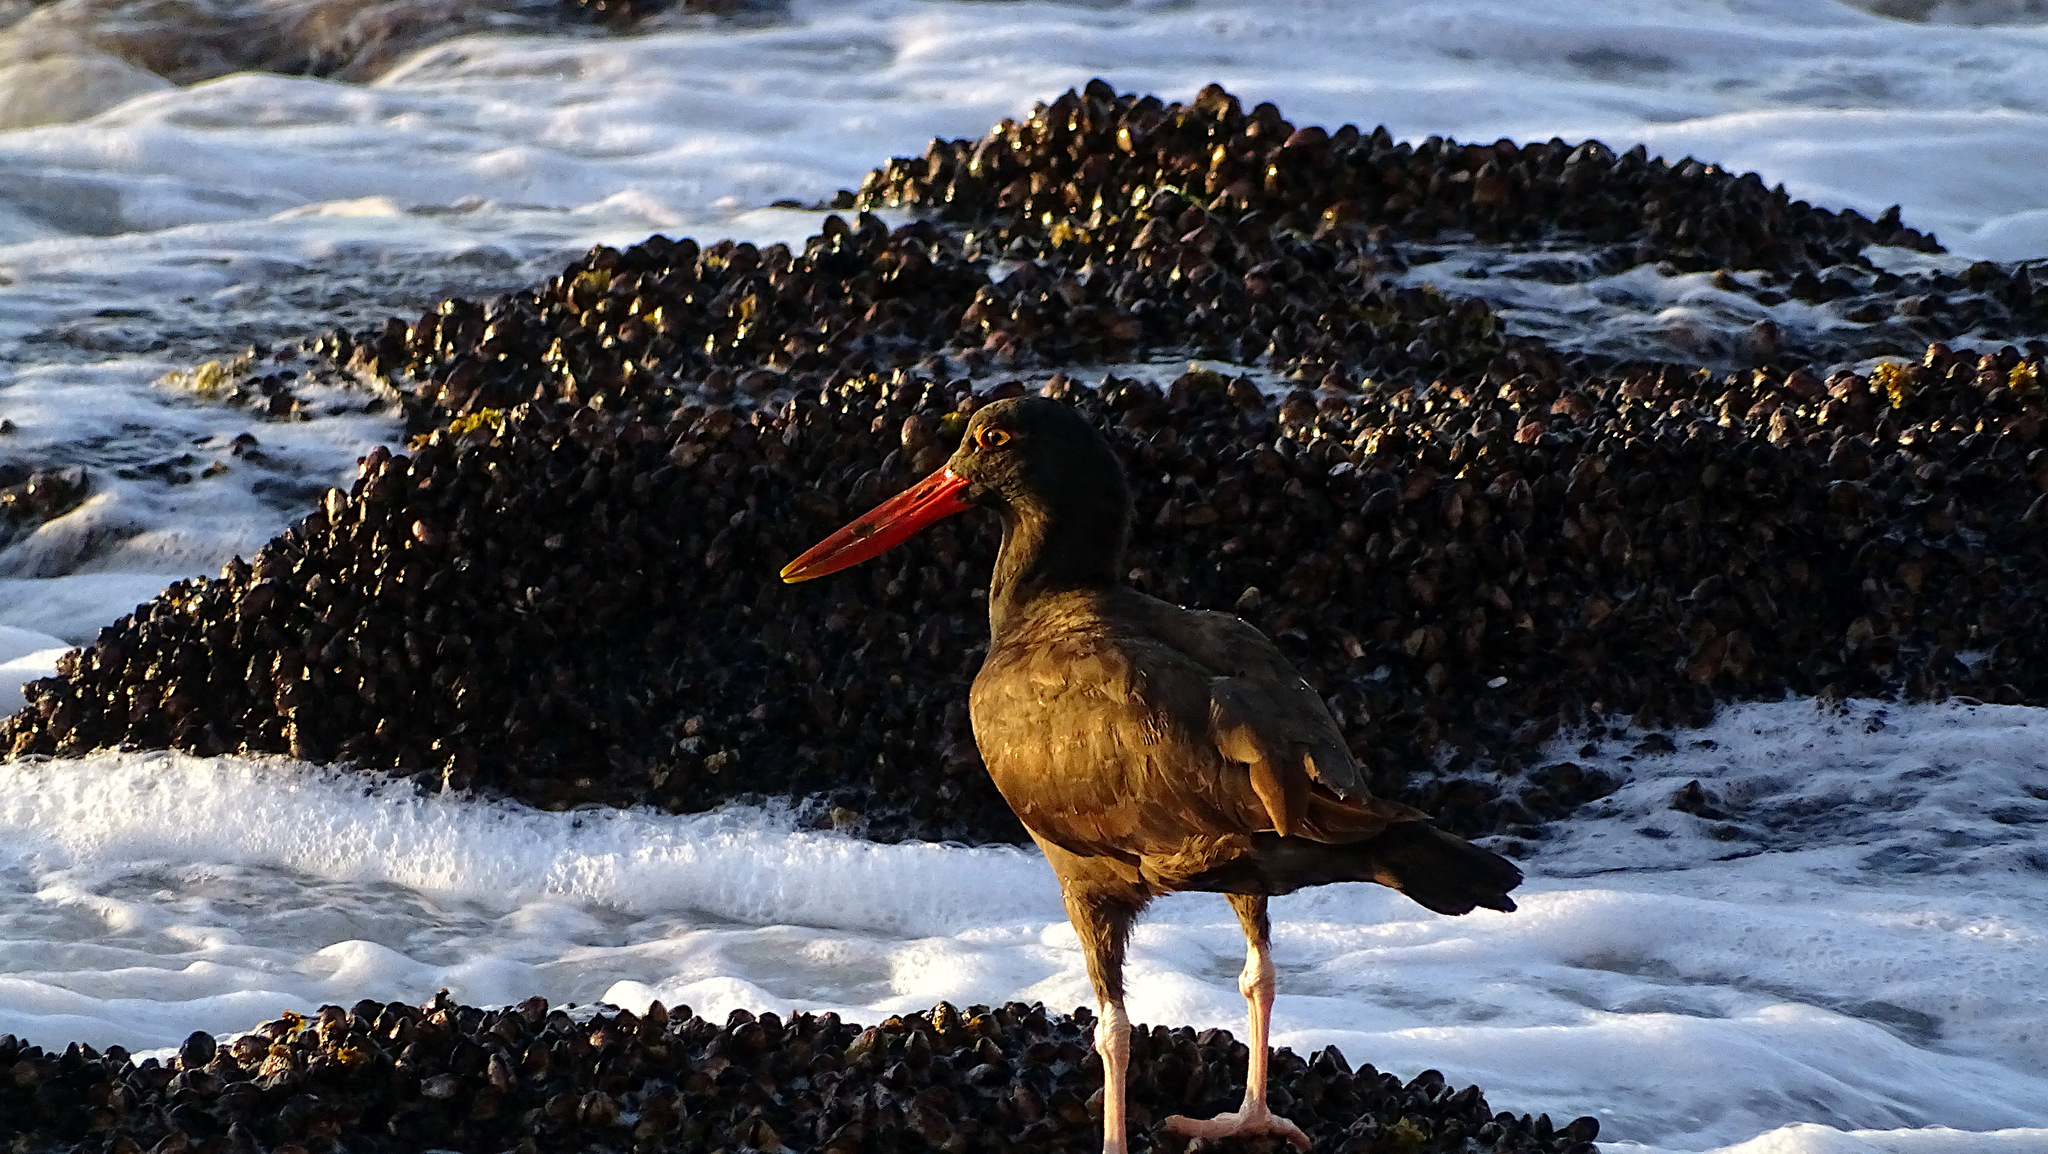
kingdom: Animalia
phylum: Chordata
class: Aves
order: Charadriiformes
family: Haematopodidae
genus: Haematopus
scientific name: Haematopus ater
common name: Blackish oystercatcher
